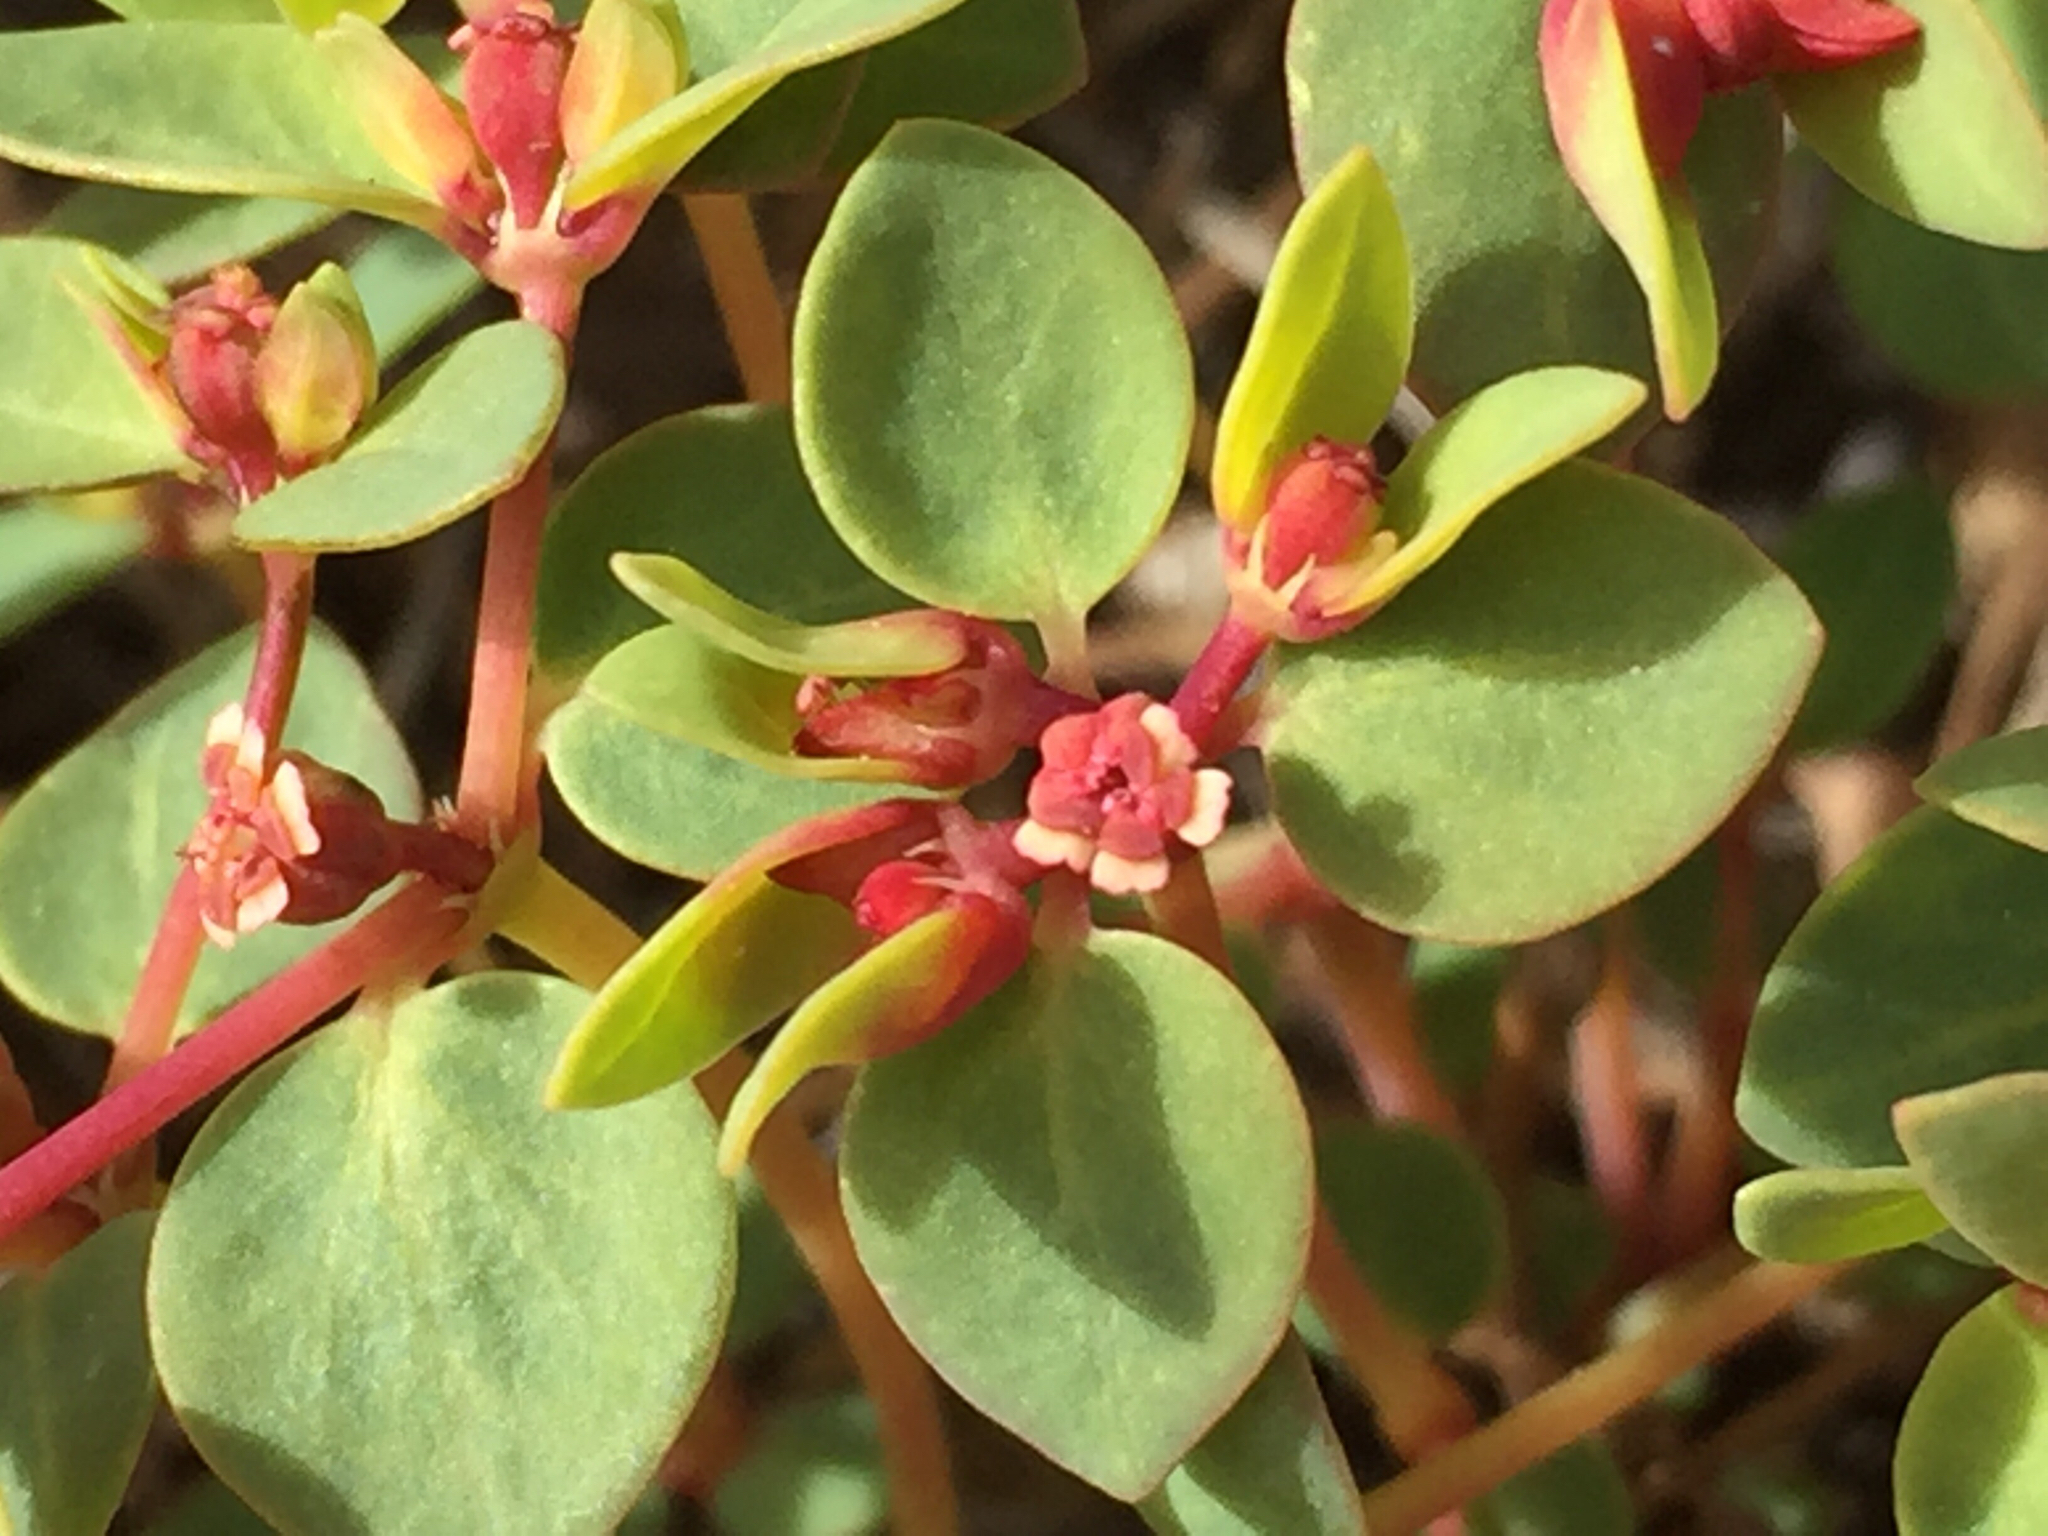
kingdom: Plantae
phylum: Tracheophyta
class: Magnoliopsida
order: Malpighiales
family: Euphorbiaceae
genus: Euphorbia
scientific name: Euphorbia fendleri
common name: Fendler's euphorbia
